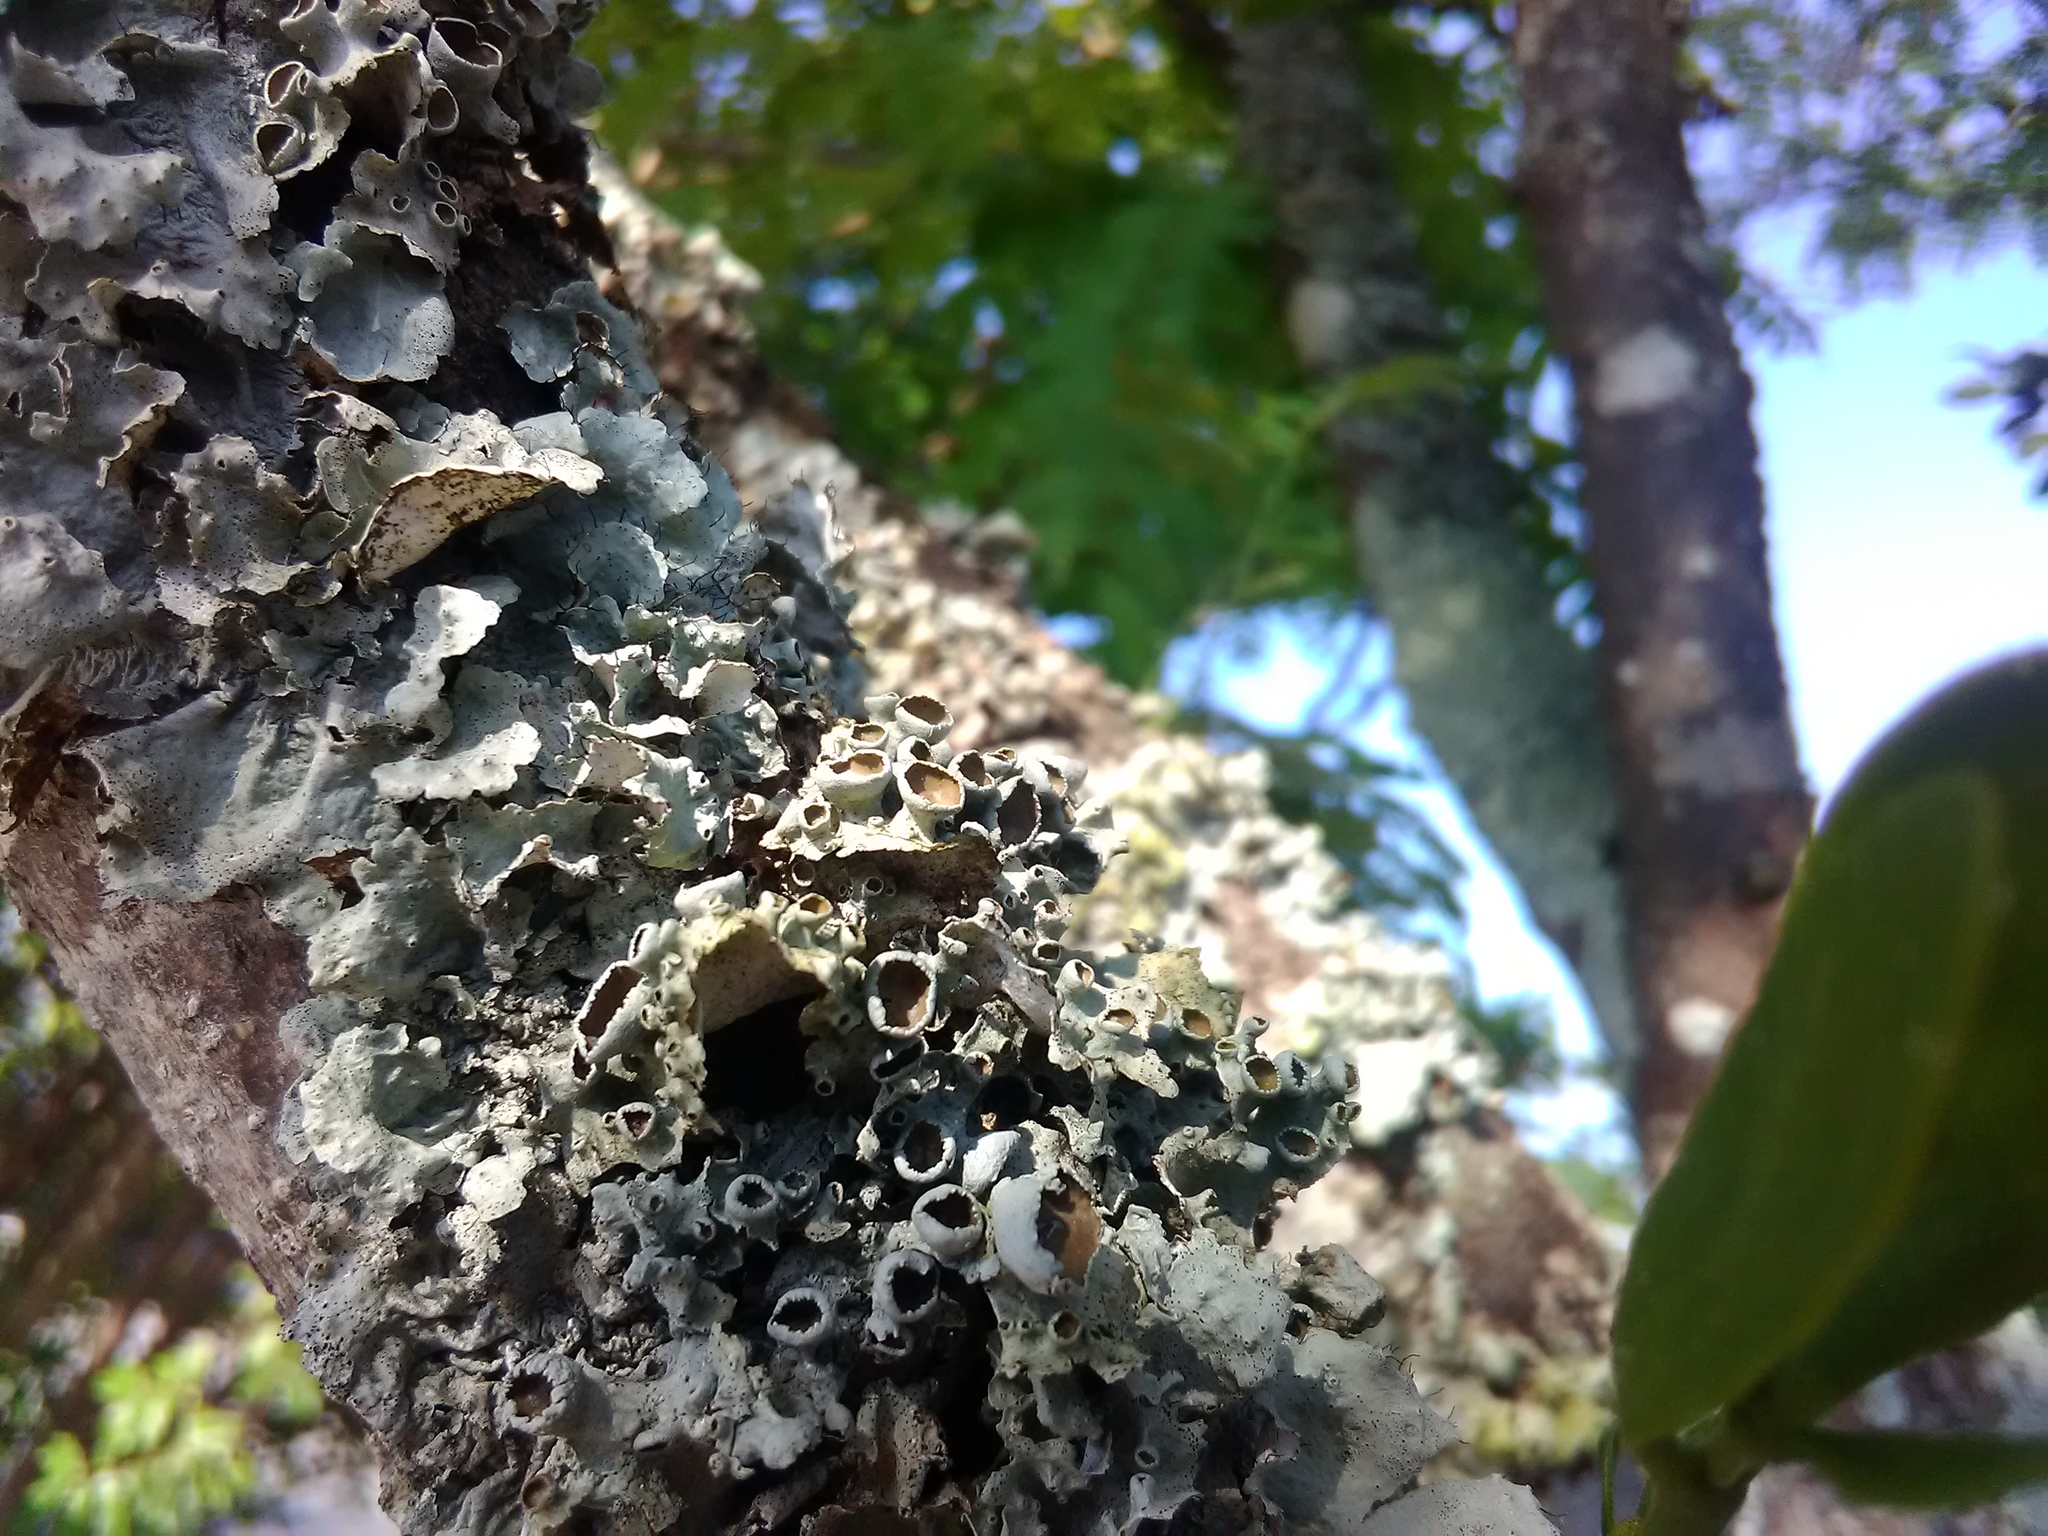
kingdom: Fungi
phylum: Ascomycota
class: Lecanoromycetes
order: Lecanorales
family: Parmeliaceae
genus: Parmotrema
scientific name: Parmotrema perforatum
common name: Perforated ruffle lichen
